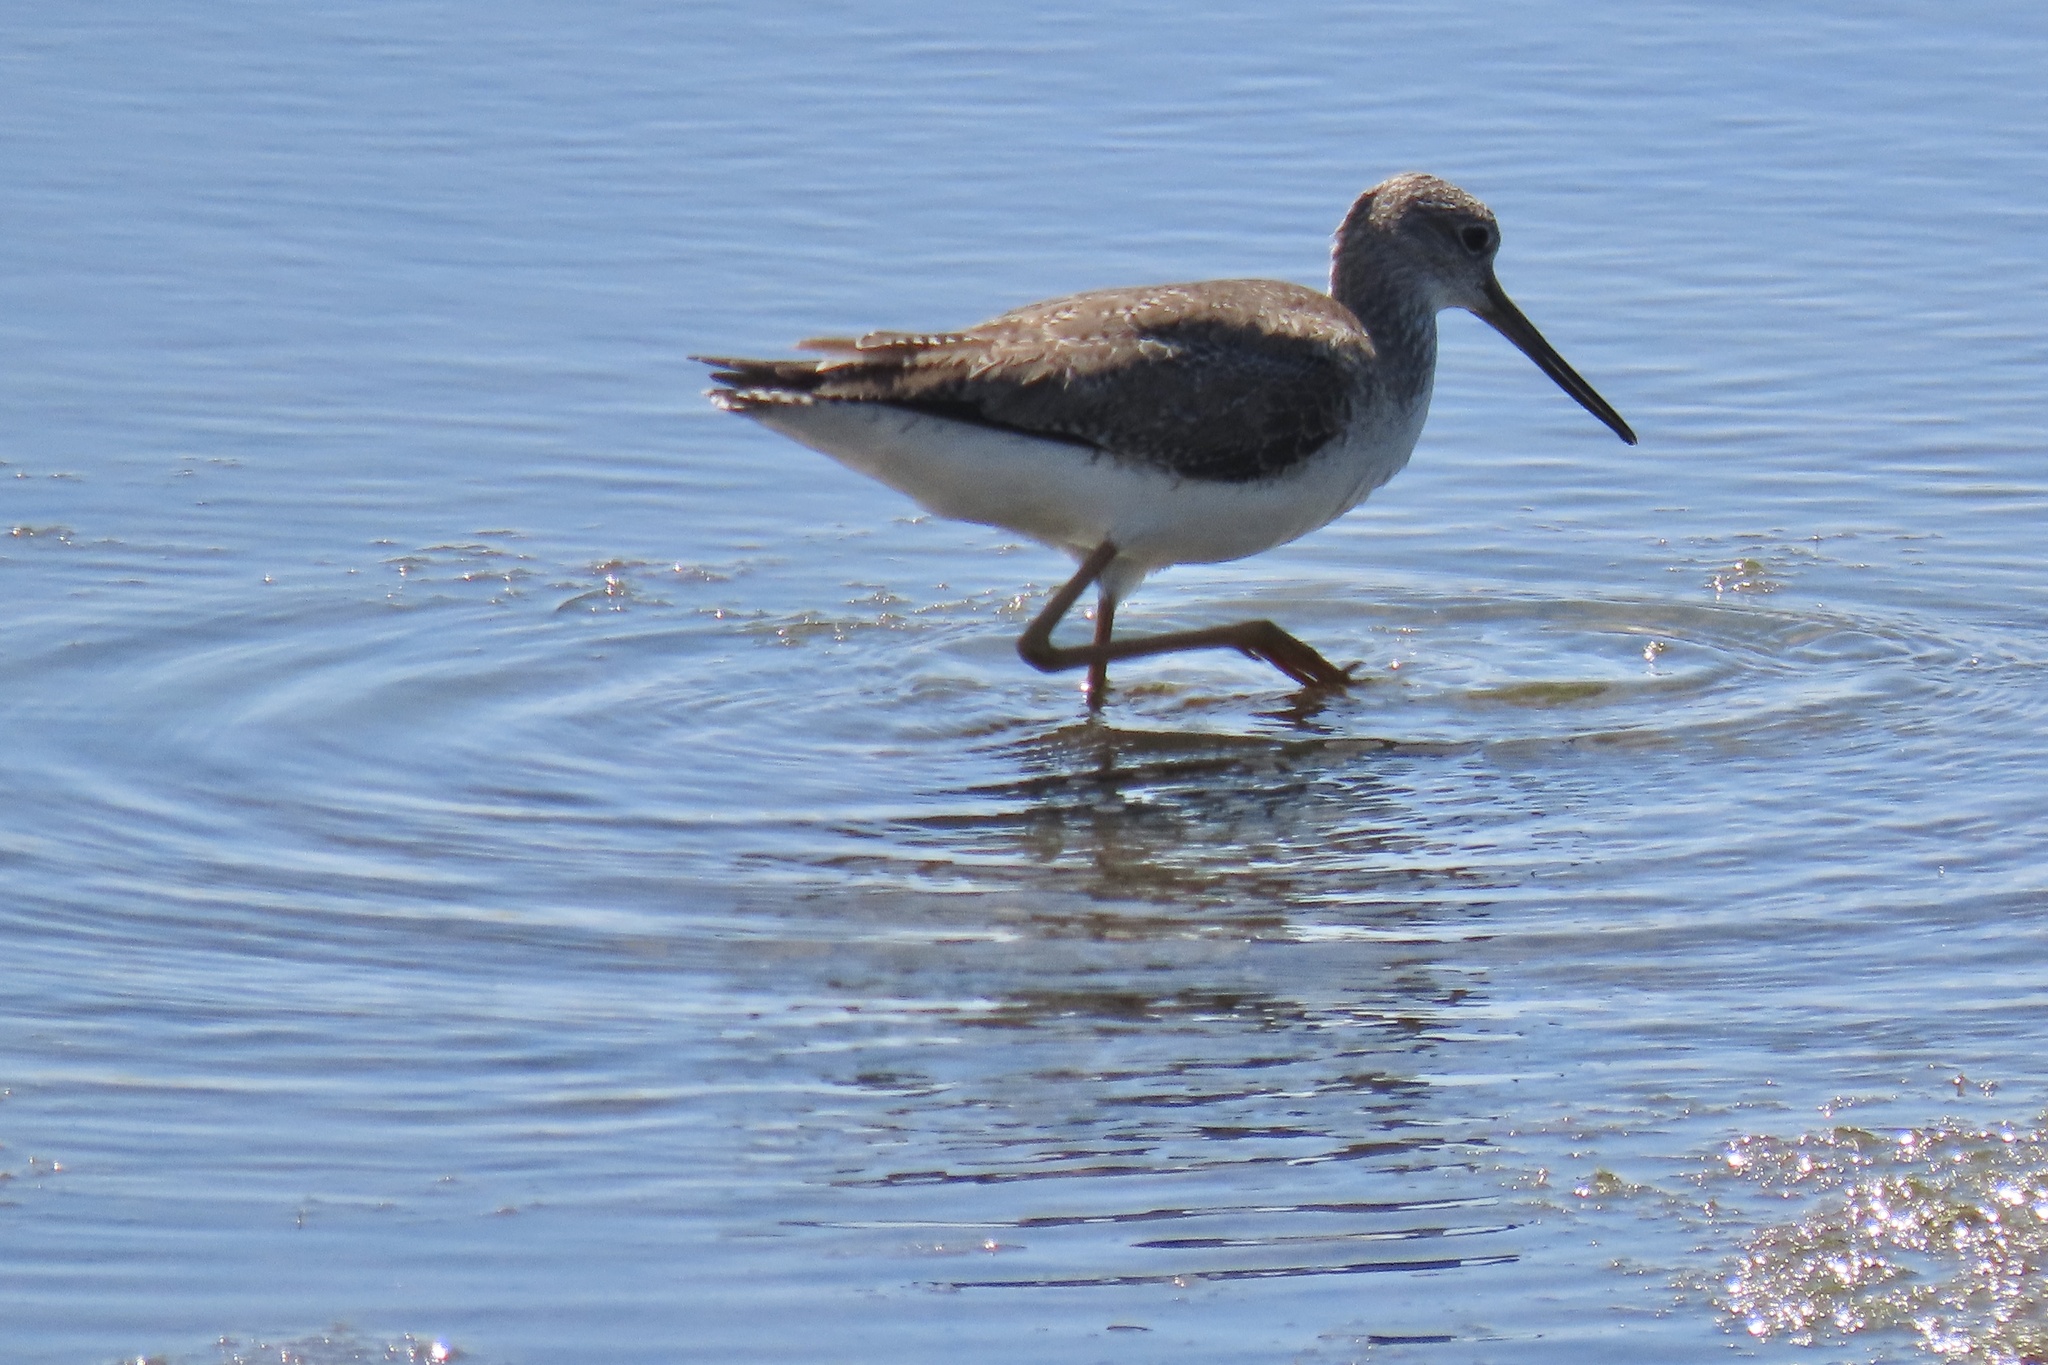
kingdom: Animalia
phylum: Chordata
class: Aves
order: Charadriiformes
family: Scolopacidae
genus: Tringa
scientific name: Tringa melanoleuca
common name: Greater yellowlegs
